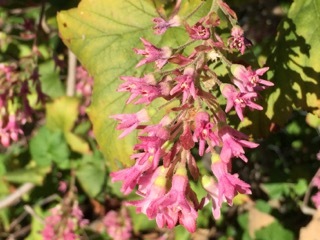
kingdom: Plantae
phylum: Tracheophyta
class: Magnoliopsida
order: Saxifragales
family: Grossulariaceae
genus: Ribes
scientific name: Ribes sanguineum
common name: Flowering currant
